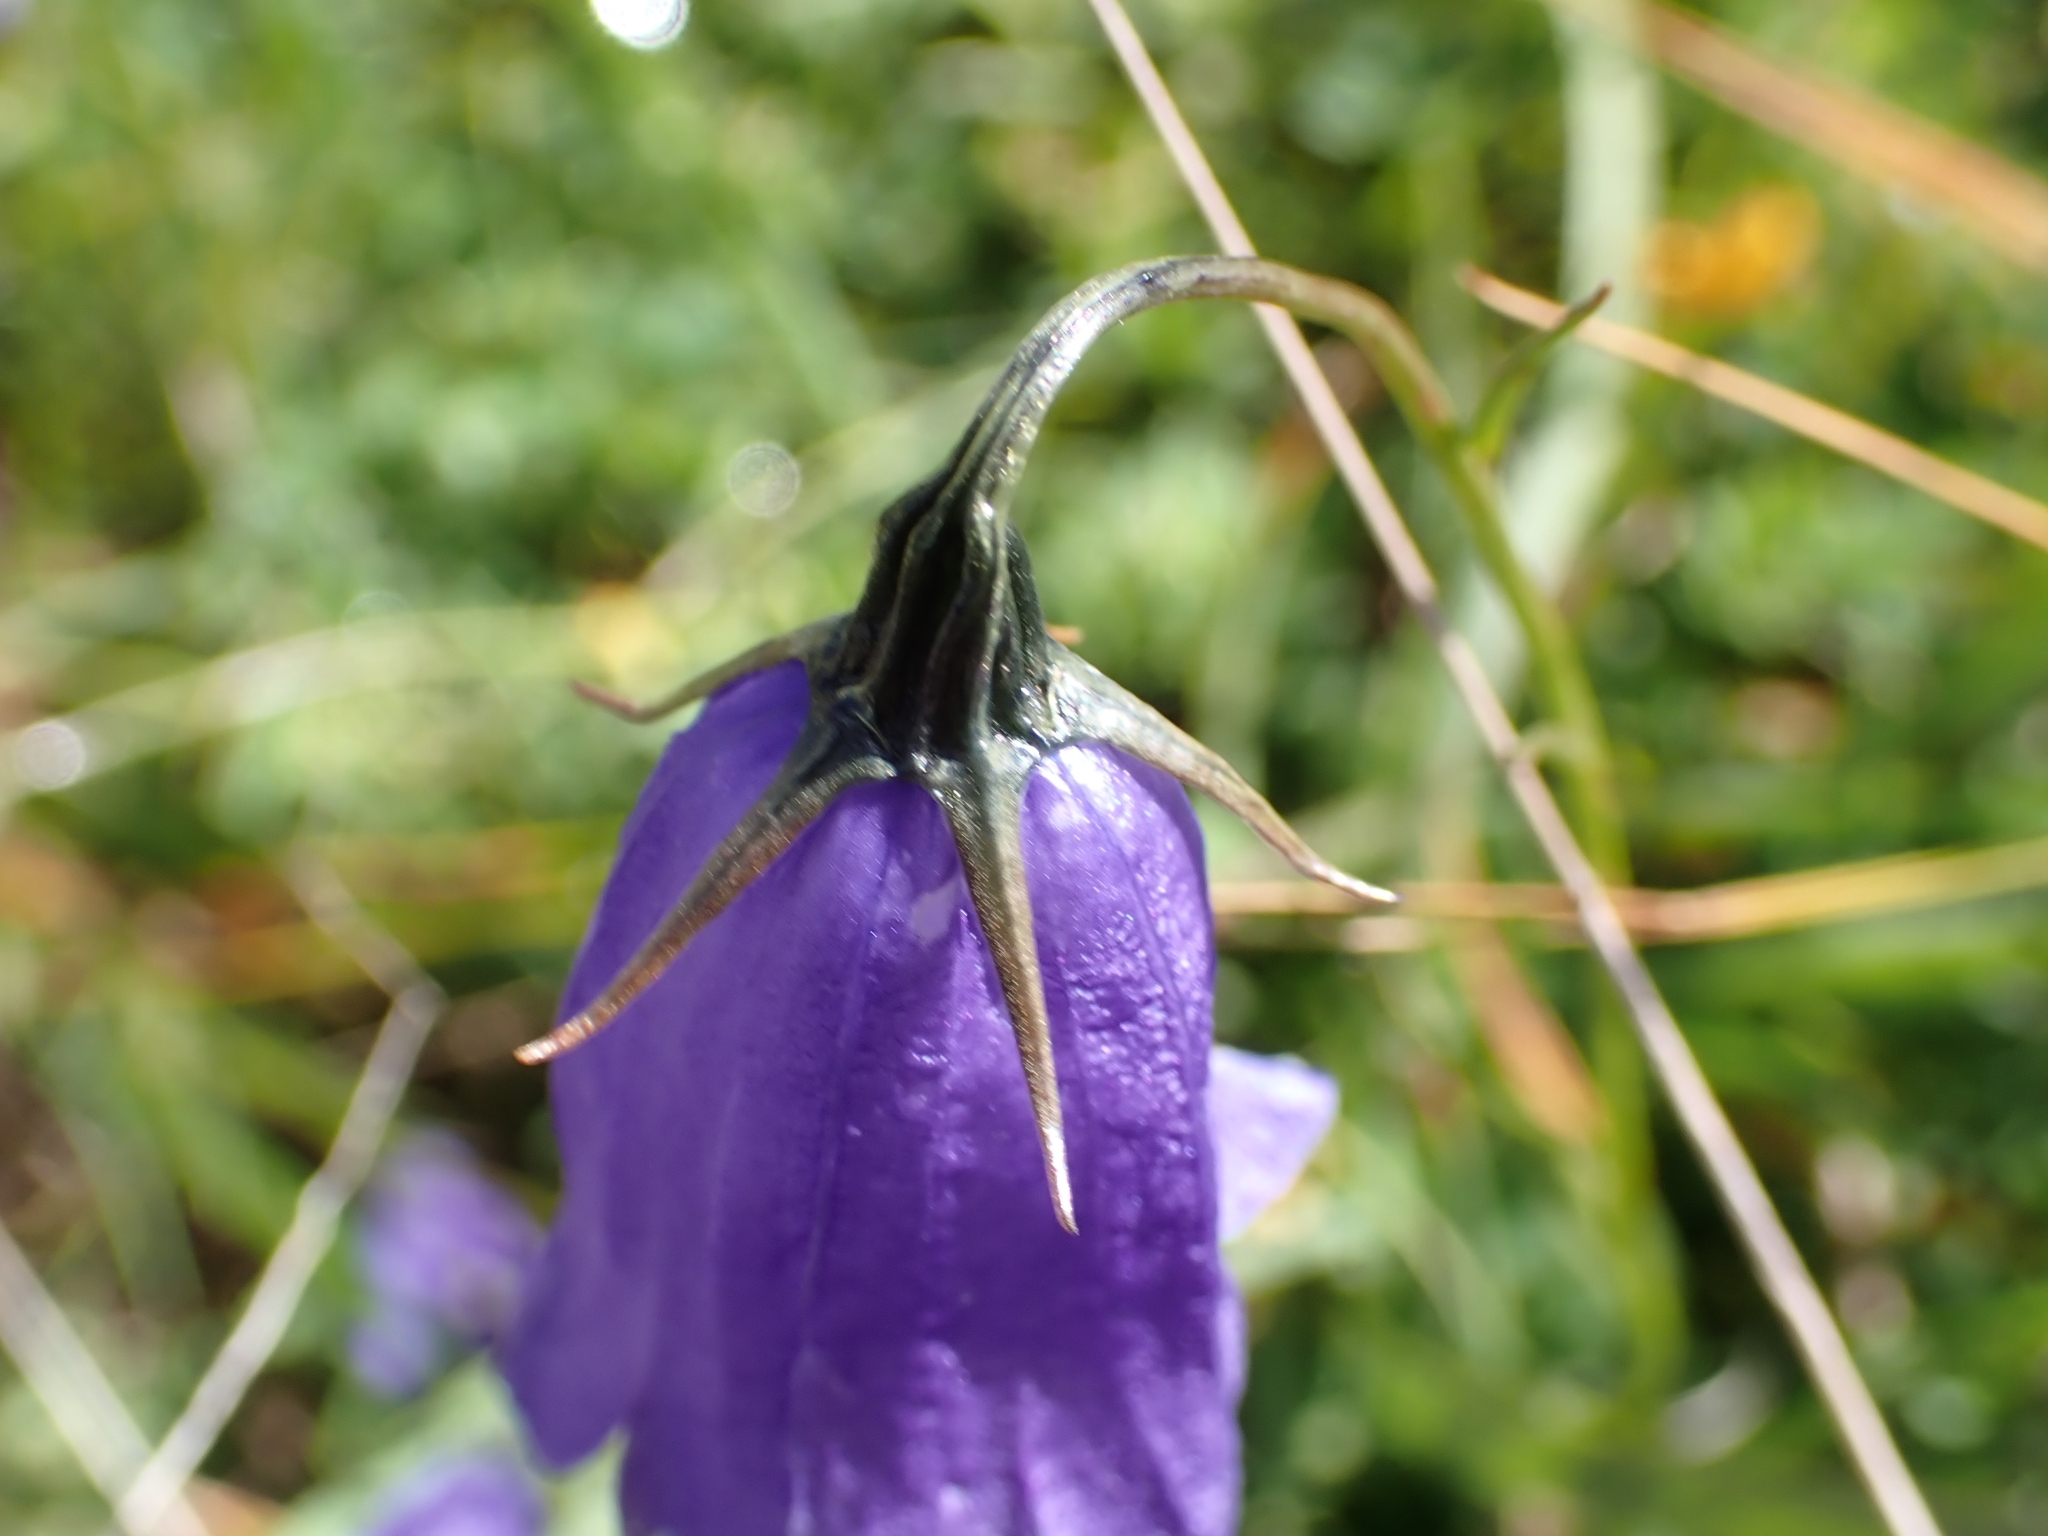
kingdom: Plantae
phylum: Tracheophyta
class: Magnoliopsida
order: Asterales
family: Campanulaceae
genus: Campanula
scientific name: Campanula scheuchzeri
